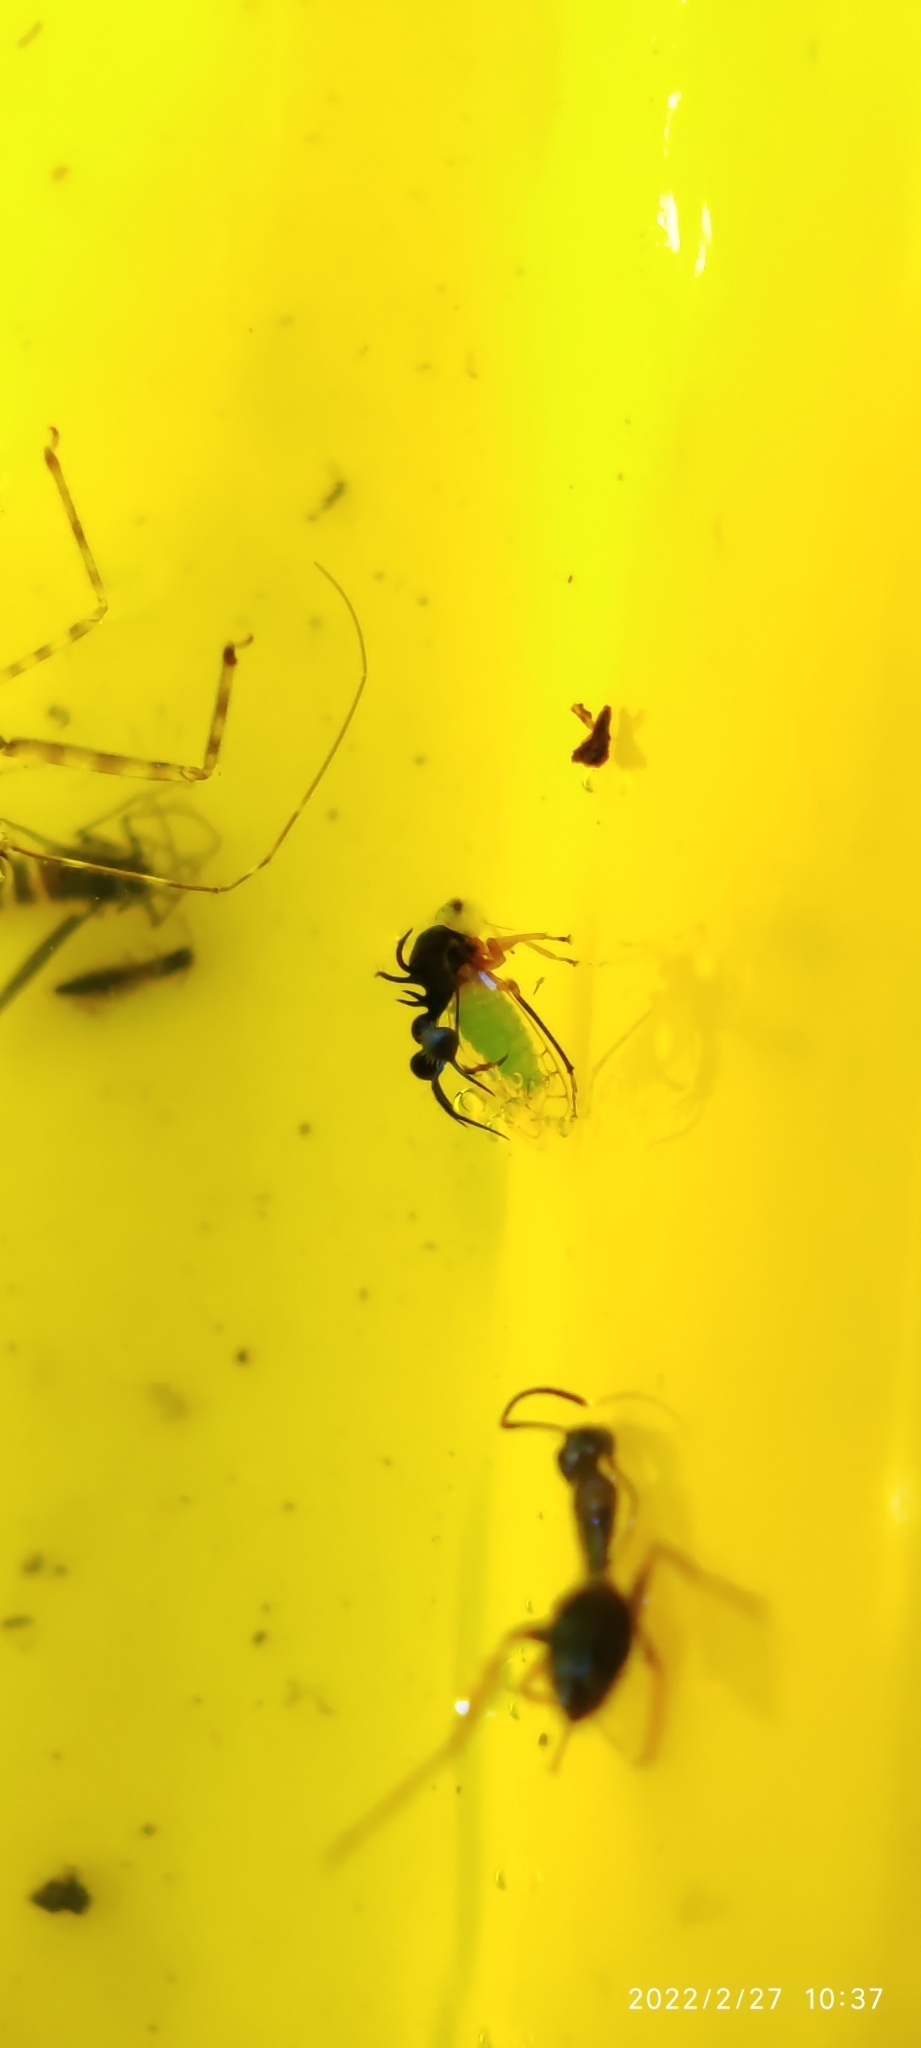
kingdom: Animalia
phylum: Arthropoda
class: Insecta
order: Hemiptera
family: Membracidae
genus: Cyphonia
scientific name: Cyphonia clavata
